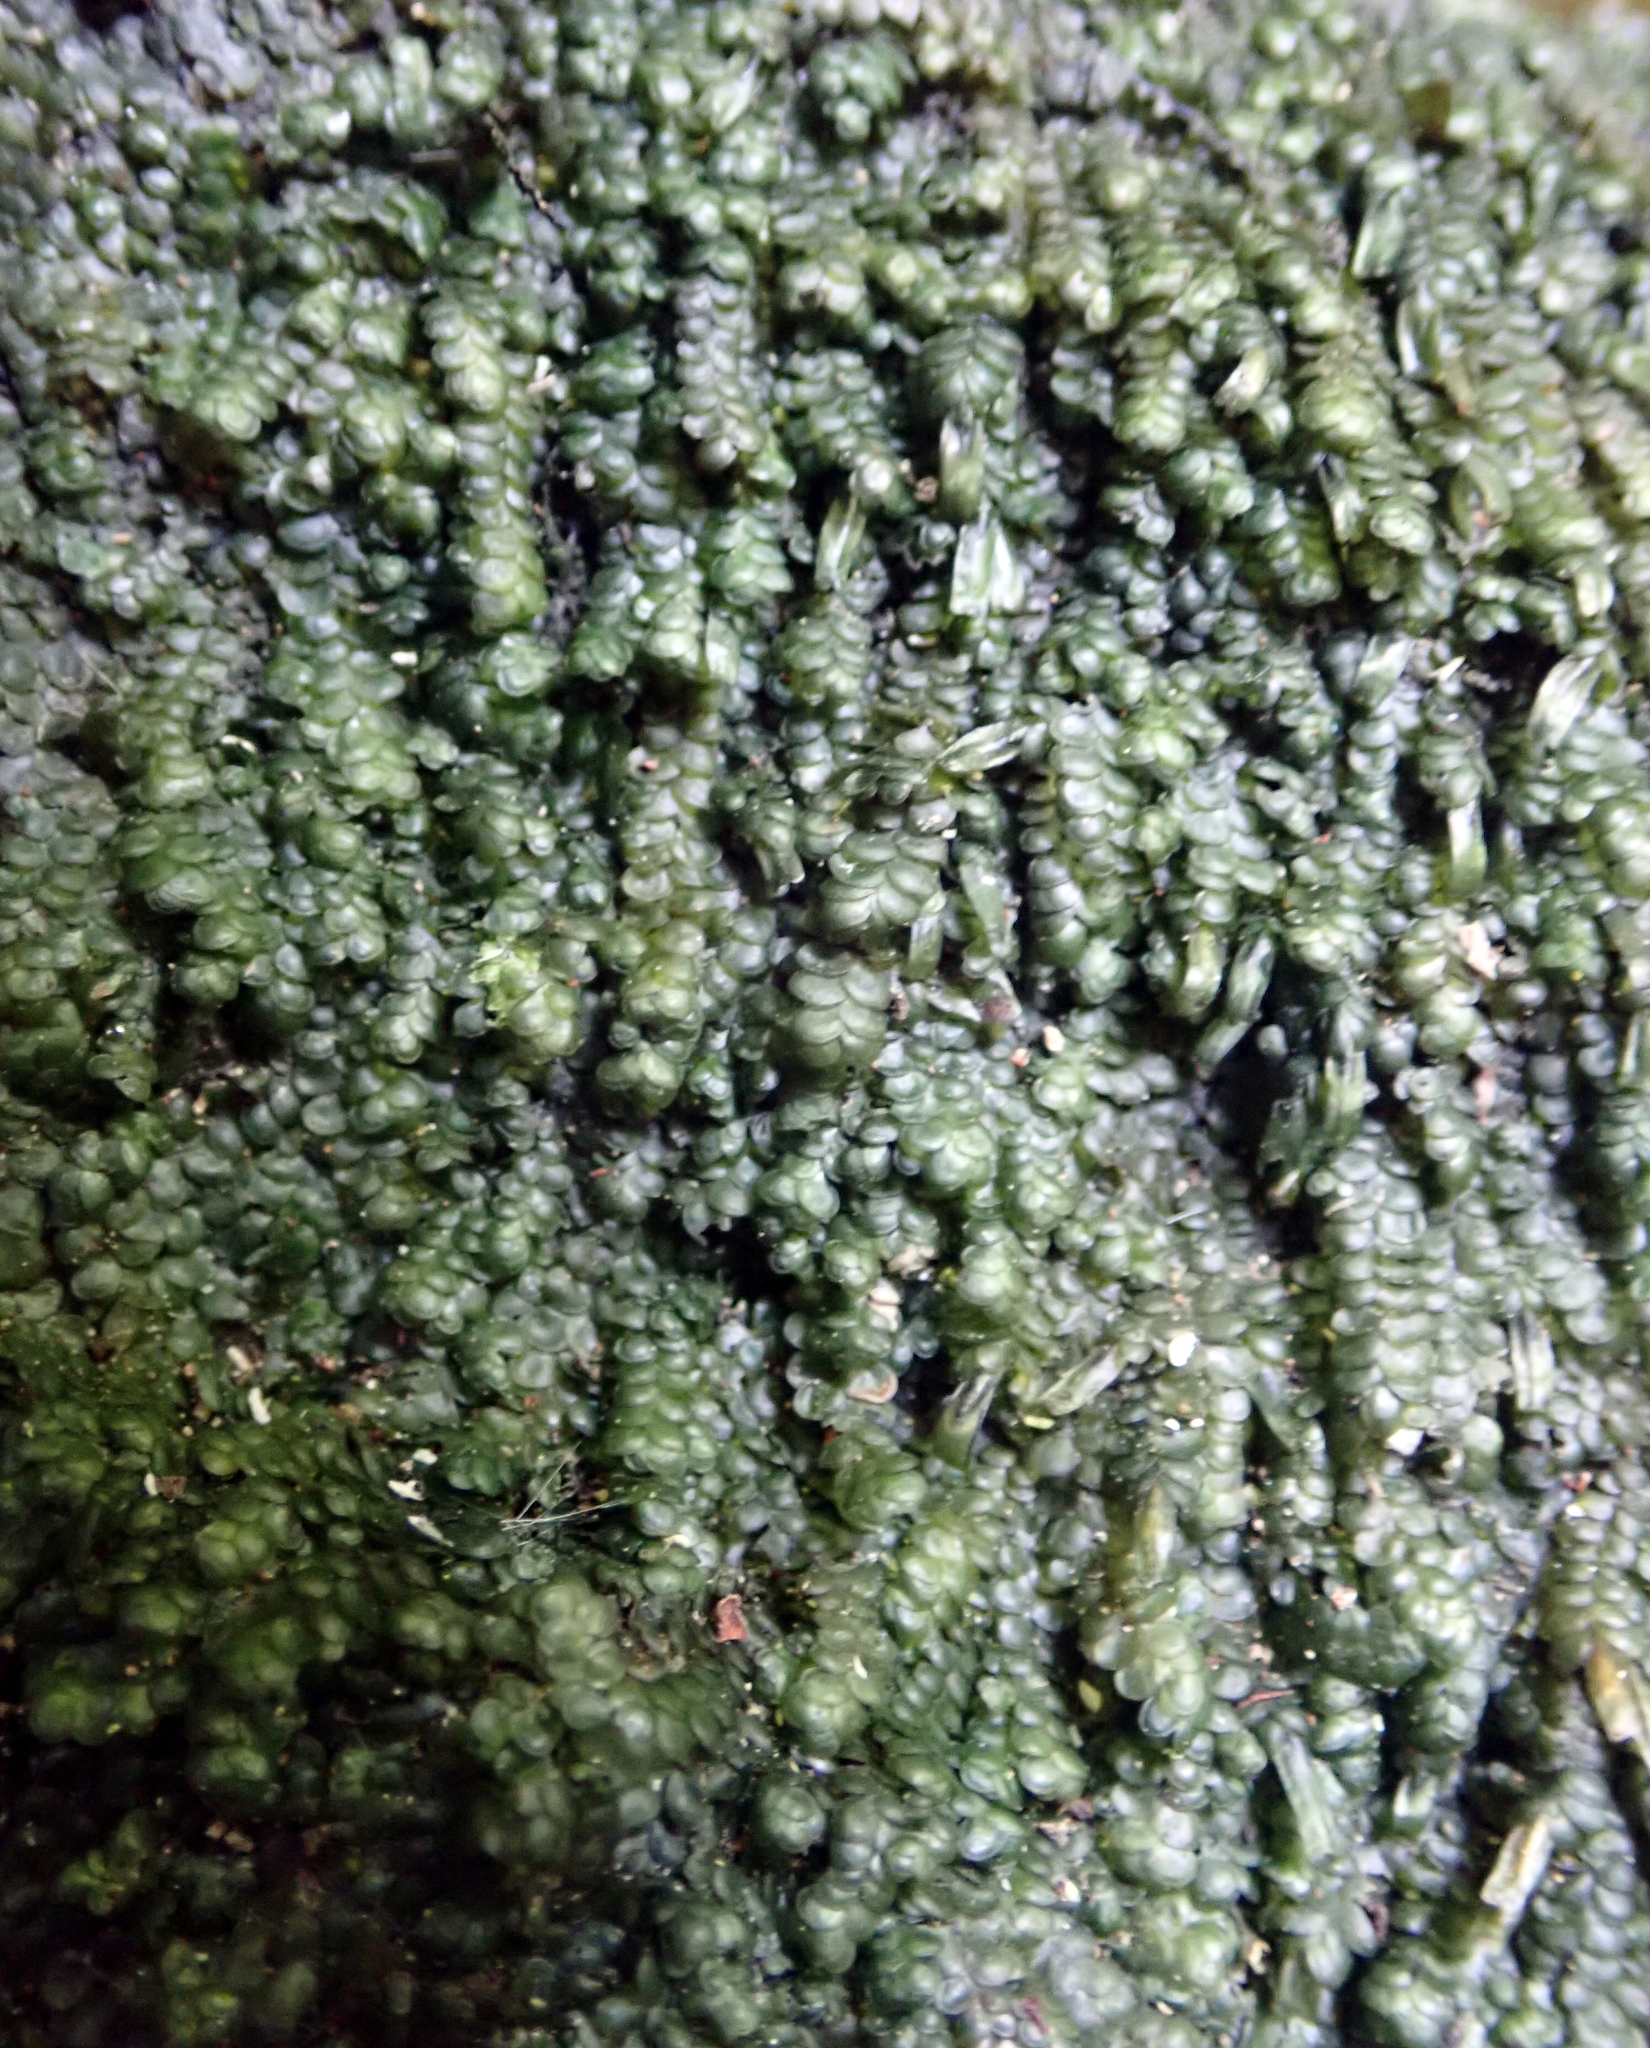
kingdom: Plantae
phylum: Marchantiophyta
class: Jungermanniopsida
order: Porellales
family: Radulaceae
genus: Radula
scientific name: Radula marginata
